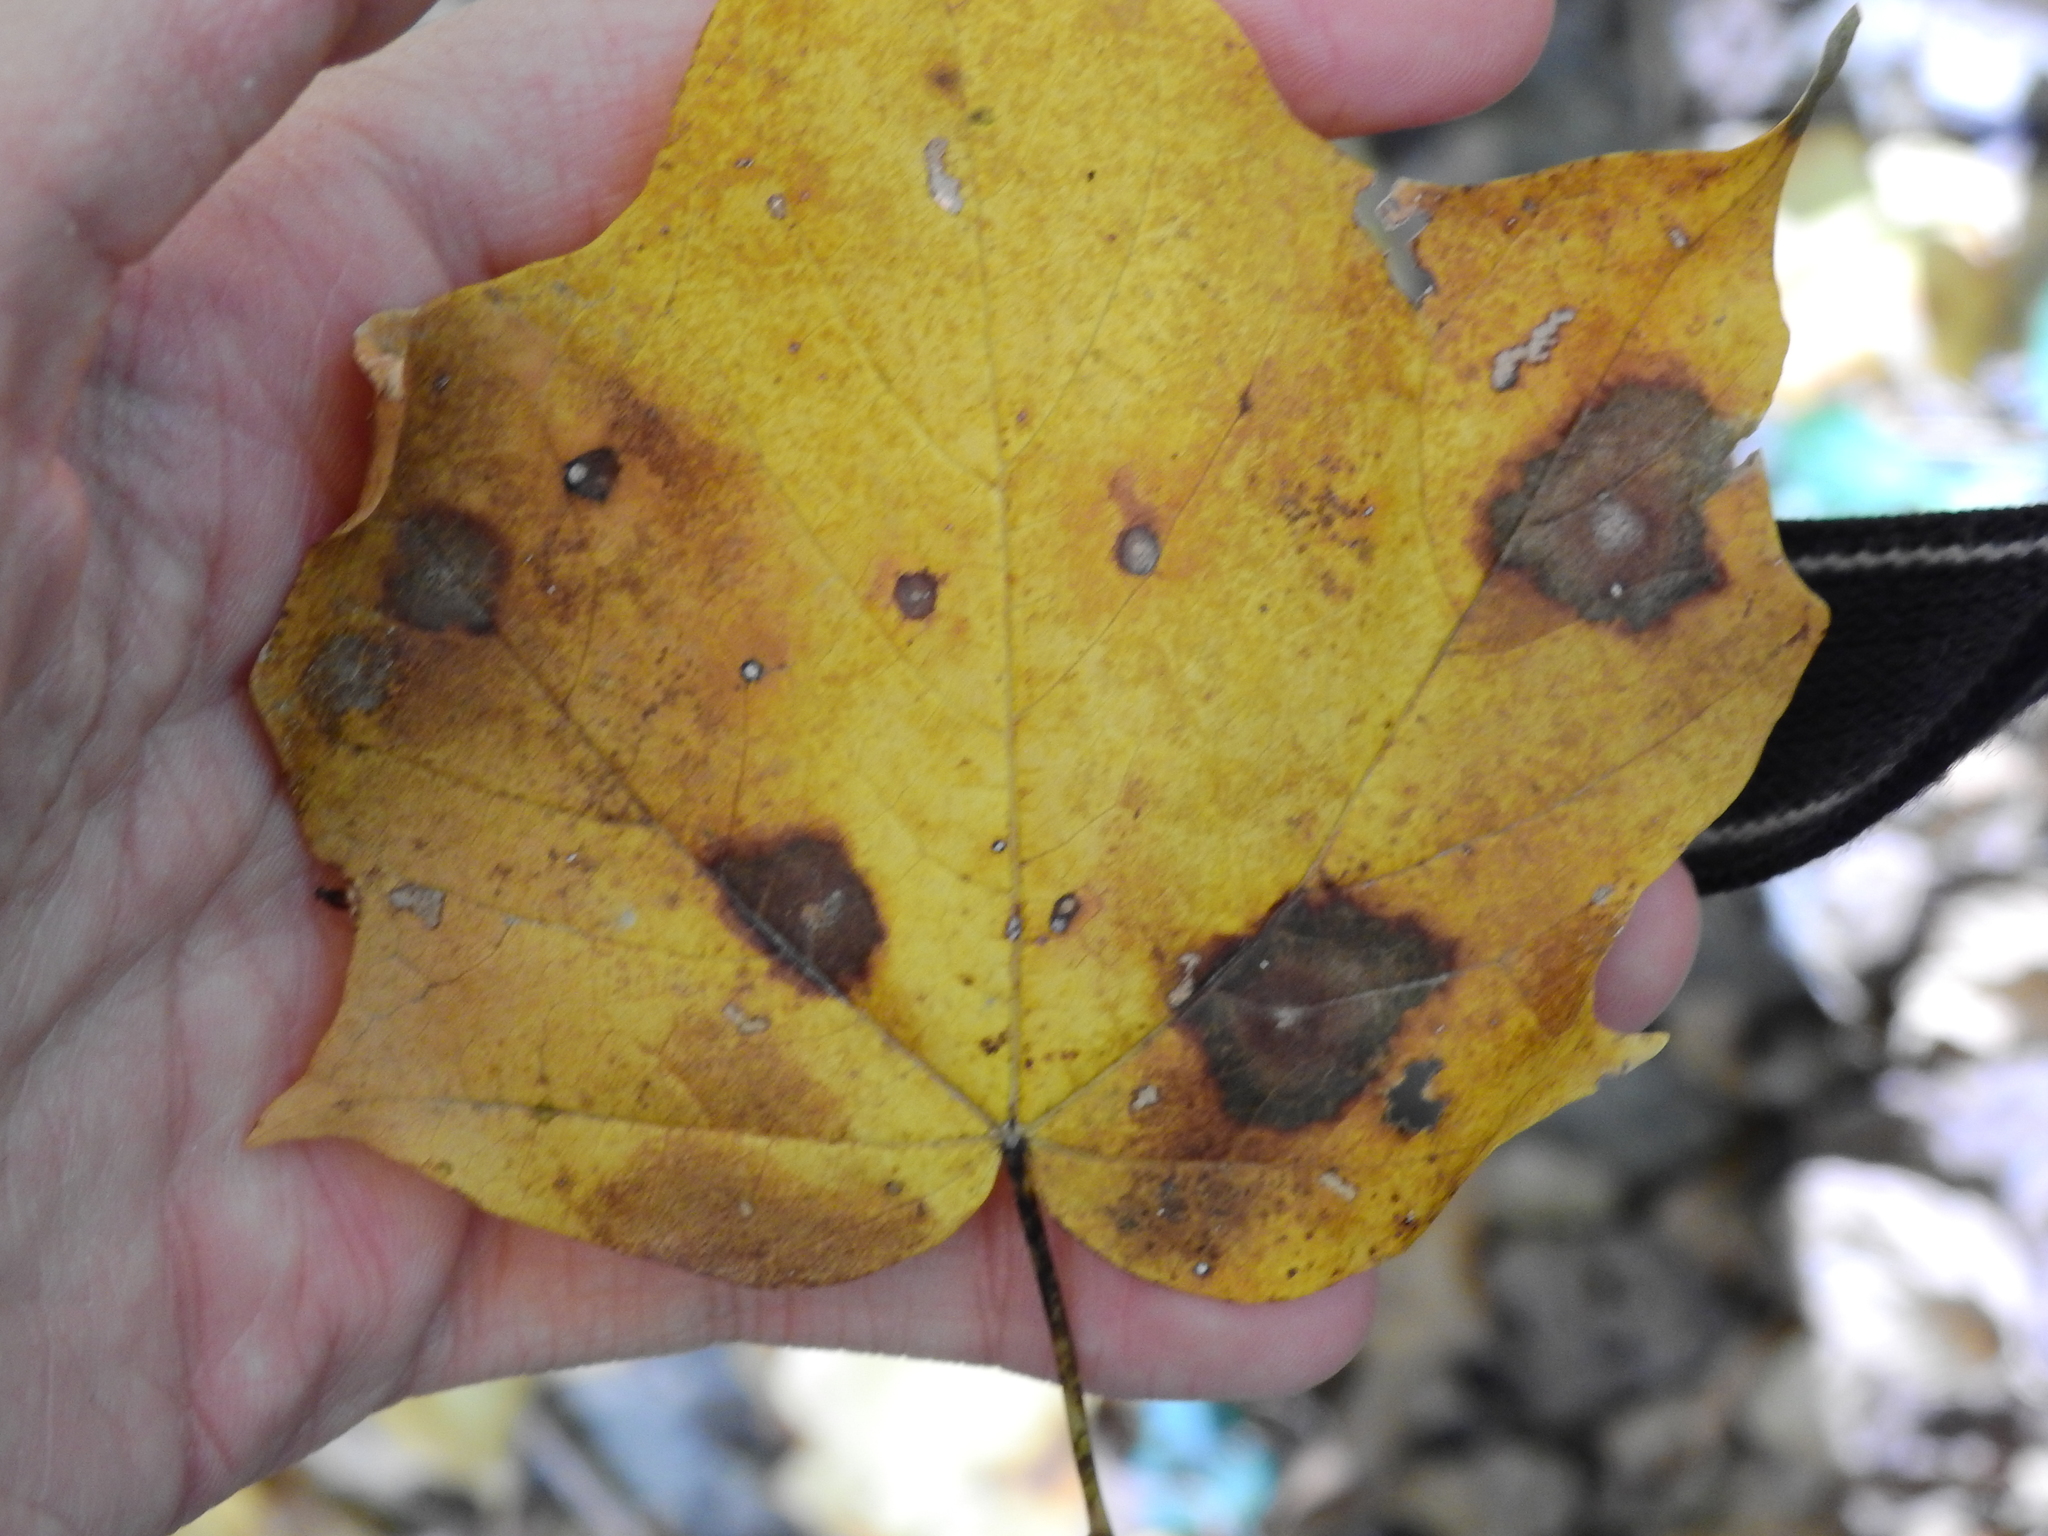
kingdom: Animalia
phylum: Arthropoda
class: Insecta
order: Diptera
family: Cecidomyiidae
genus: Acericecis
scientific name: Acericecis ocellaris
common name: Ocellate gall midge
